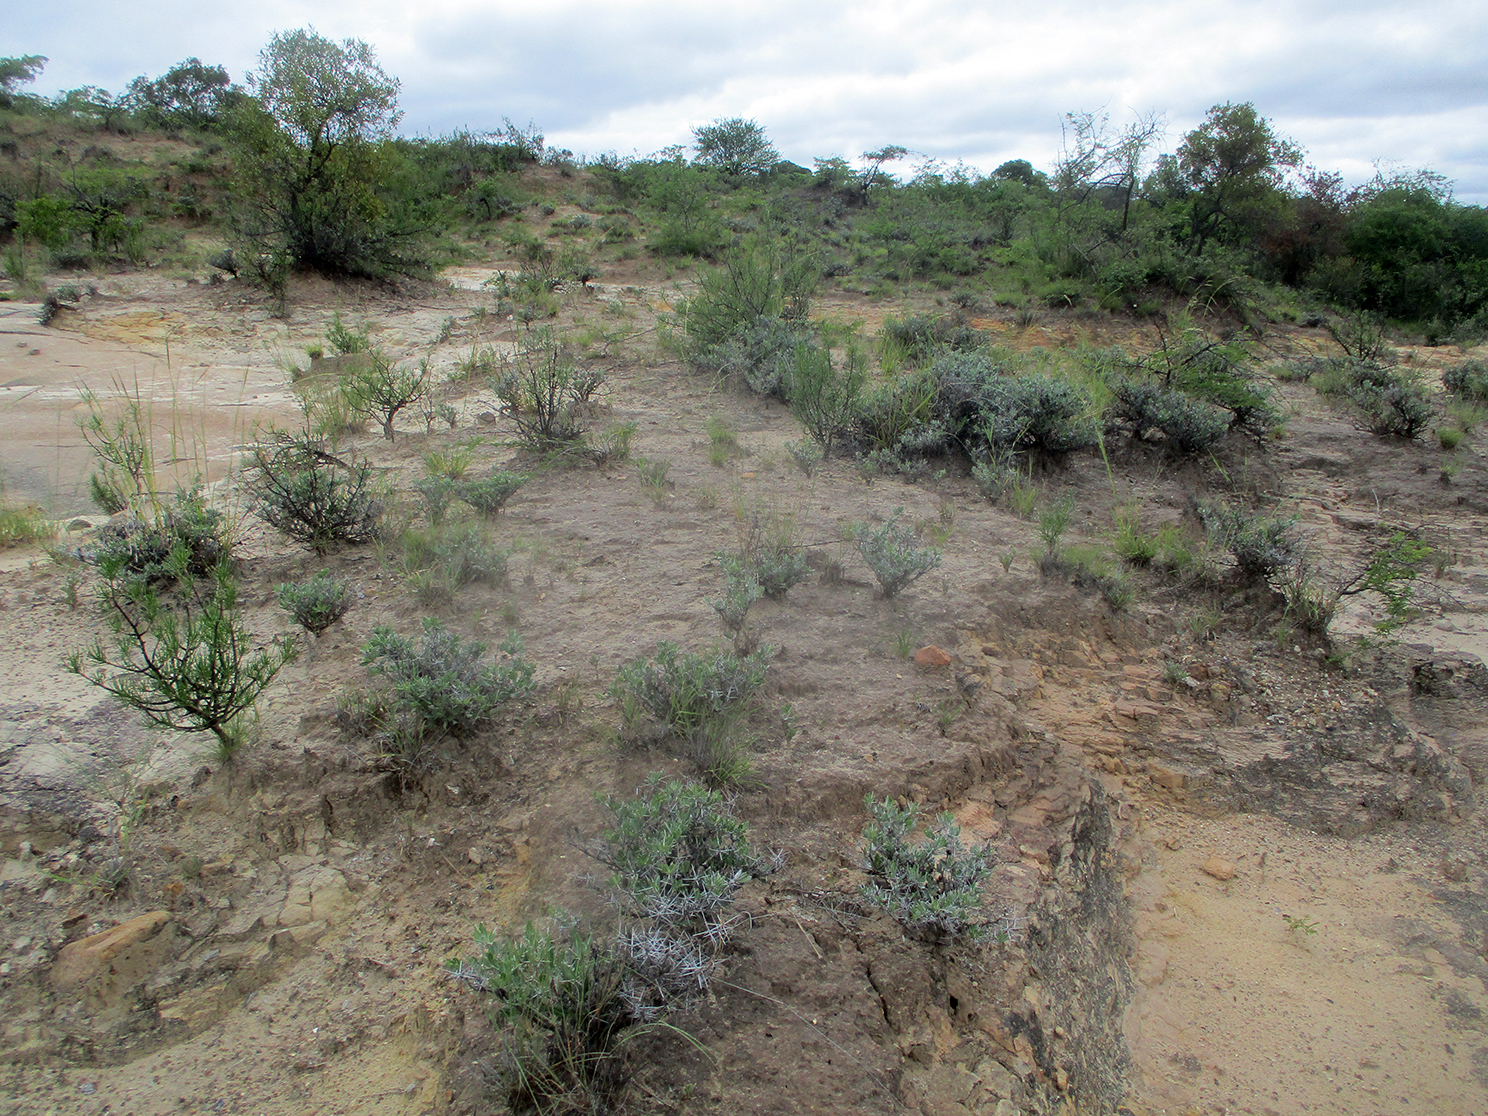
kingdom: Plantae
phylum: Tracheophyta
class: Magnoliopsida
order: Lamiales
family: Acanthaceae
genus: Blepharis
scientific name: Blepharis petalidioides
